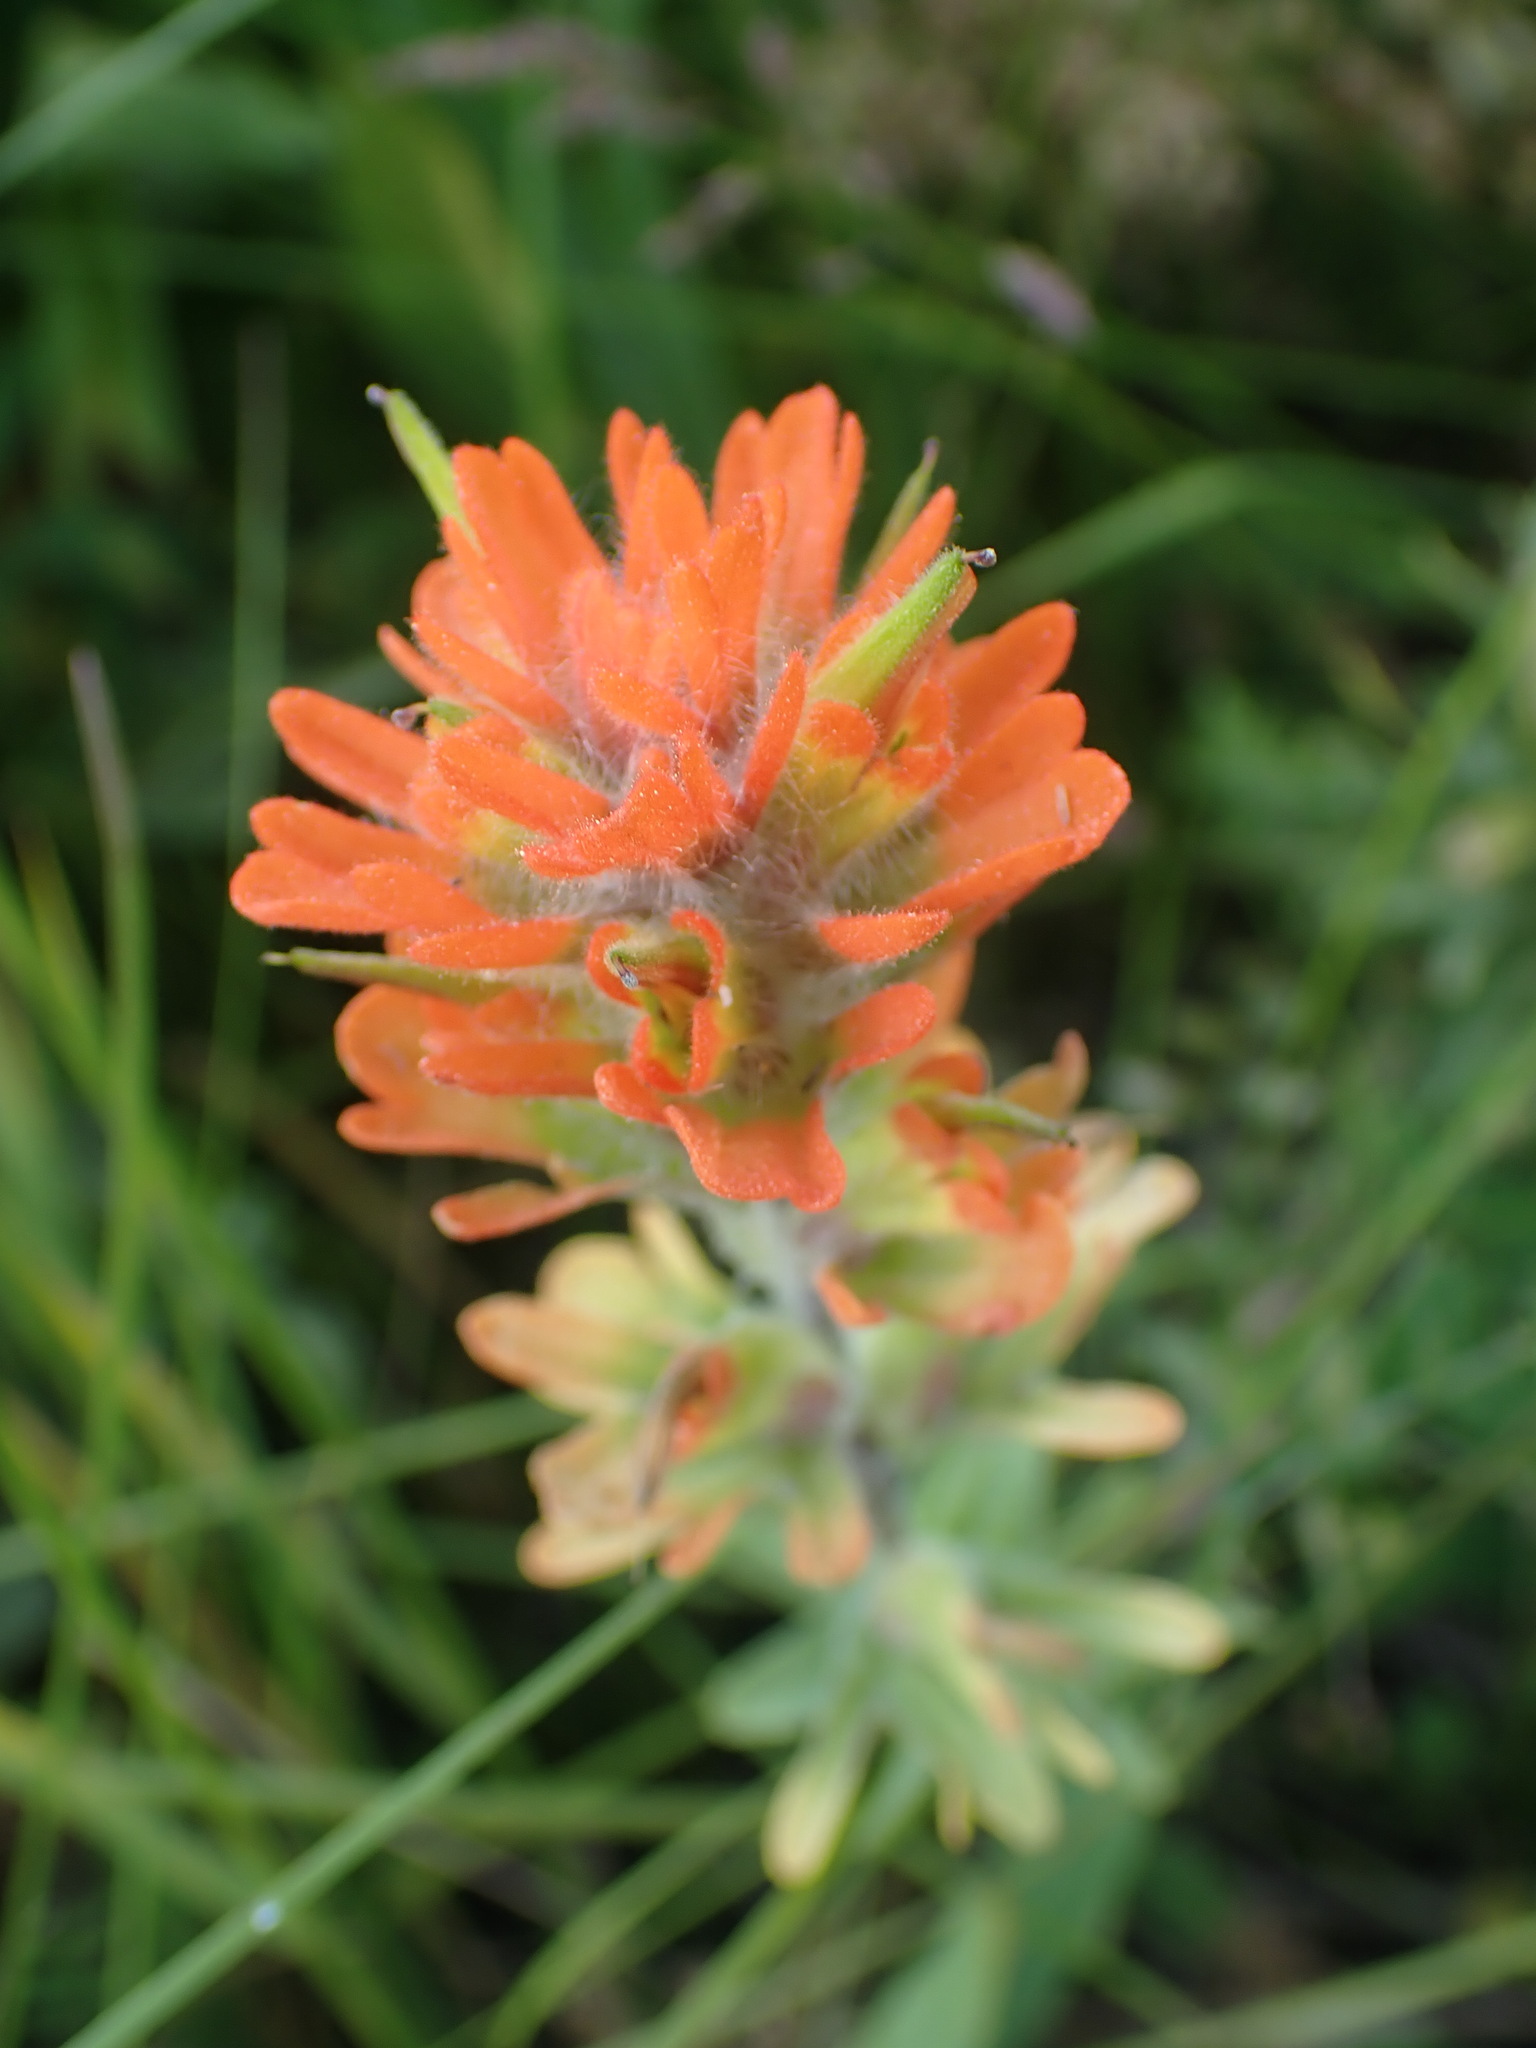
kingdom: Plantae
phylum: Tracheophyta
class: Magnoliopsida
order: Lamiales
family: Orobanchaceae
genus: Castilleja
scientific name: Castilleja hispida
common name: Bristly paintbrush
